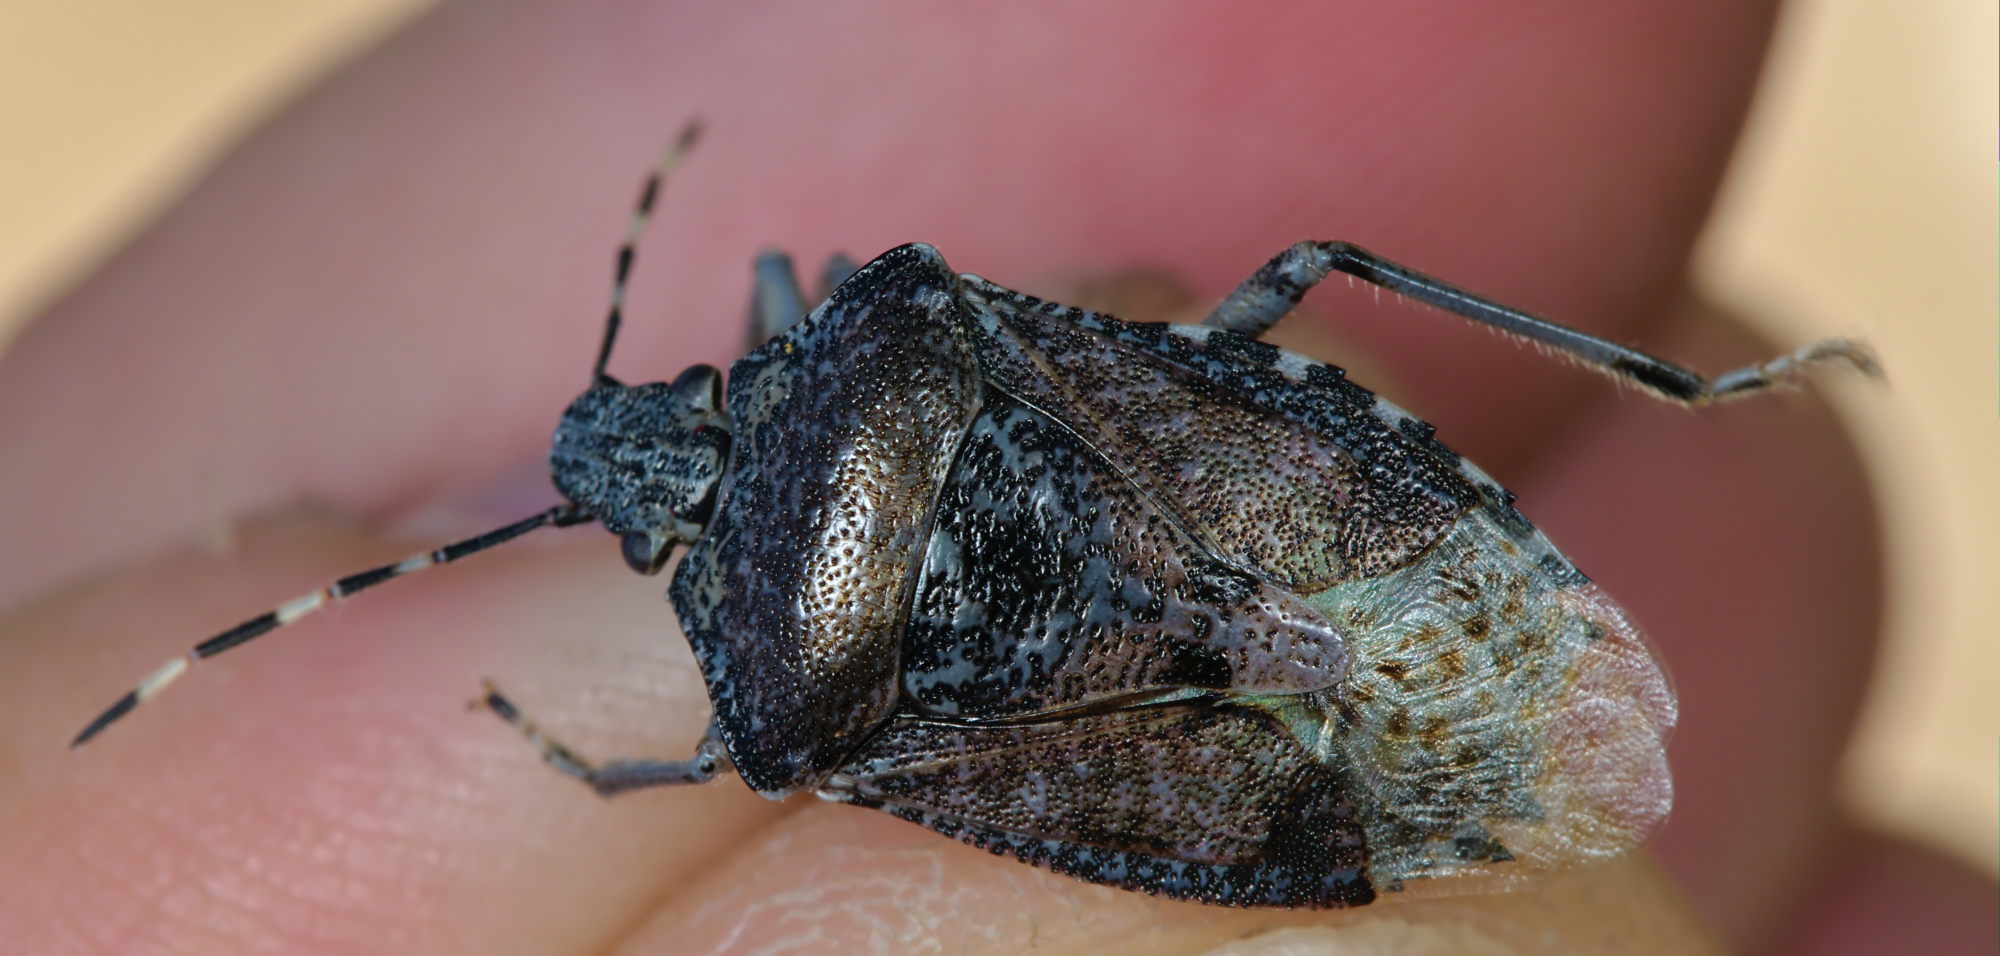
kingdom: Animalia
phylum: Arthropoda
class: Insecta
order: Hemiptera
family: Pentatomidae
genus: Rhaphigaster
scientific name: Rhaphigaster nebulosa
